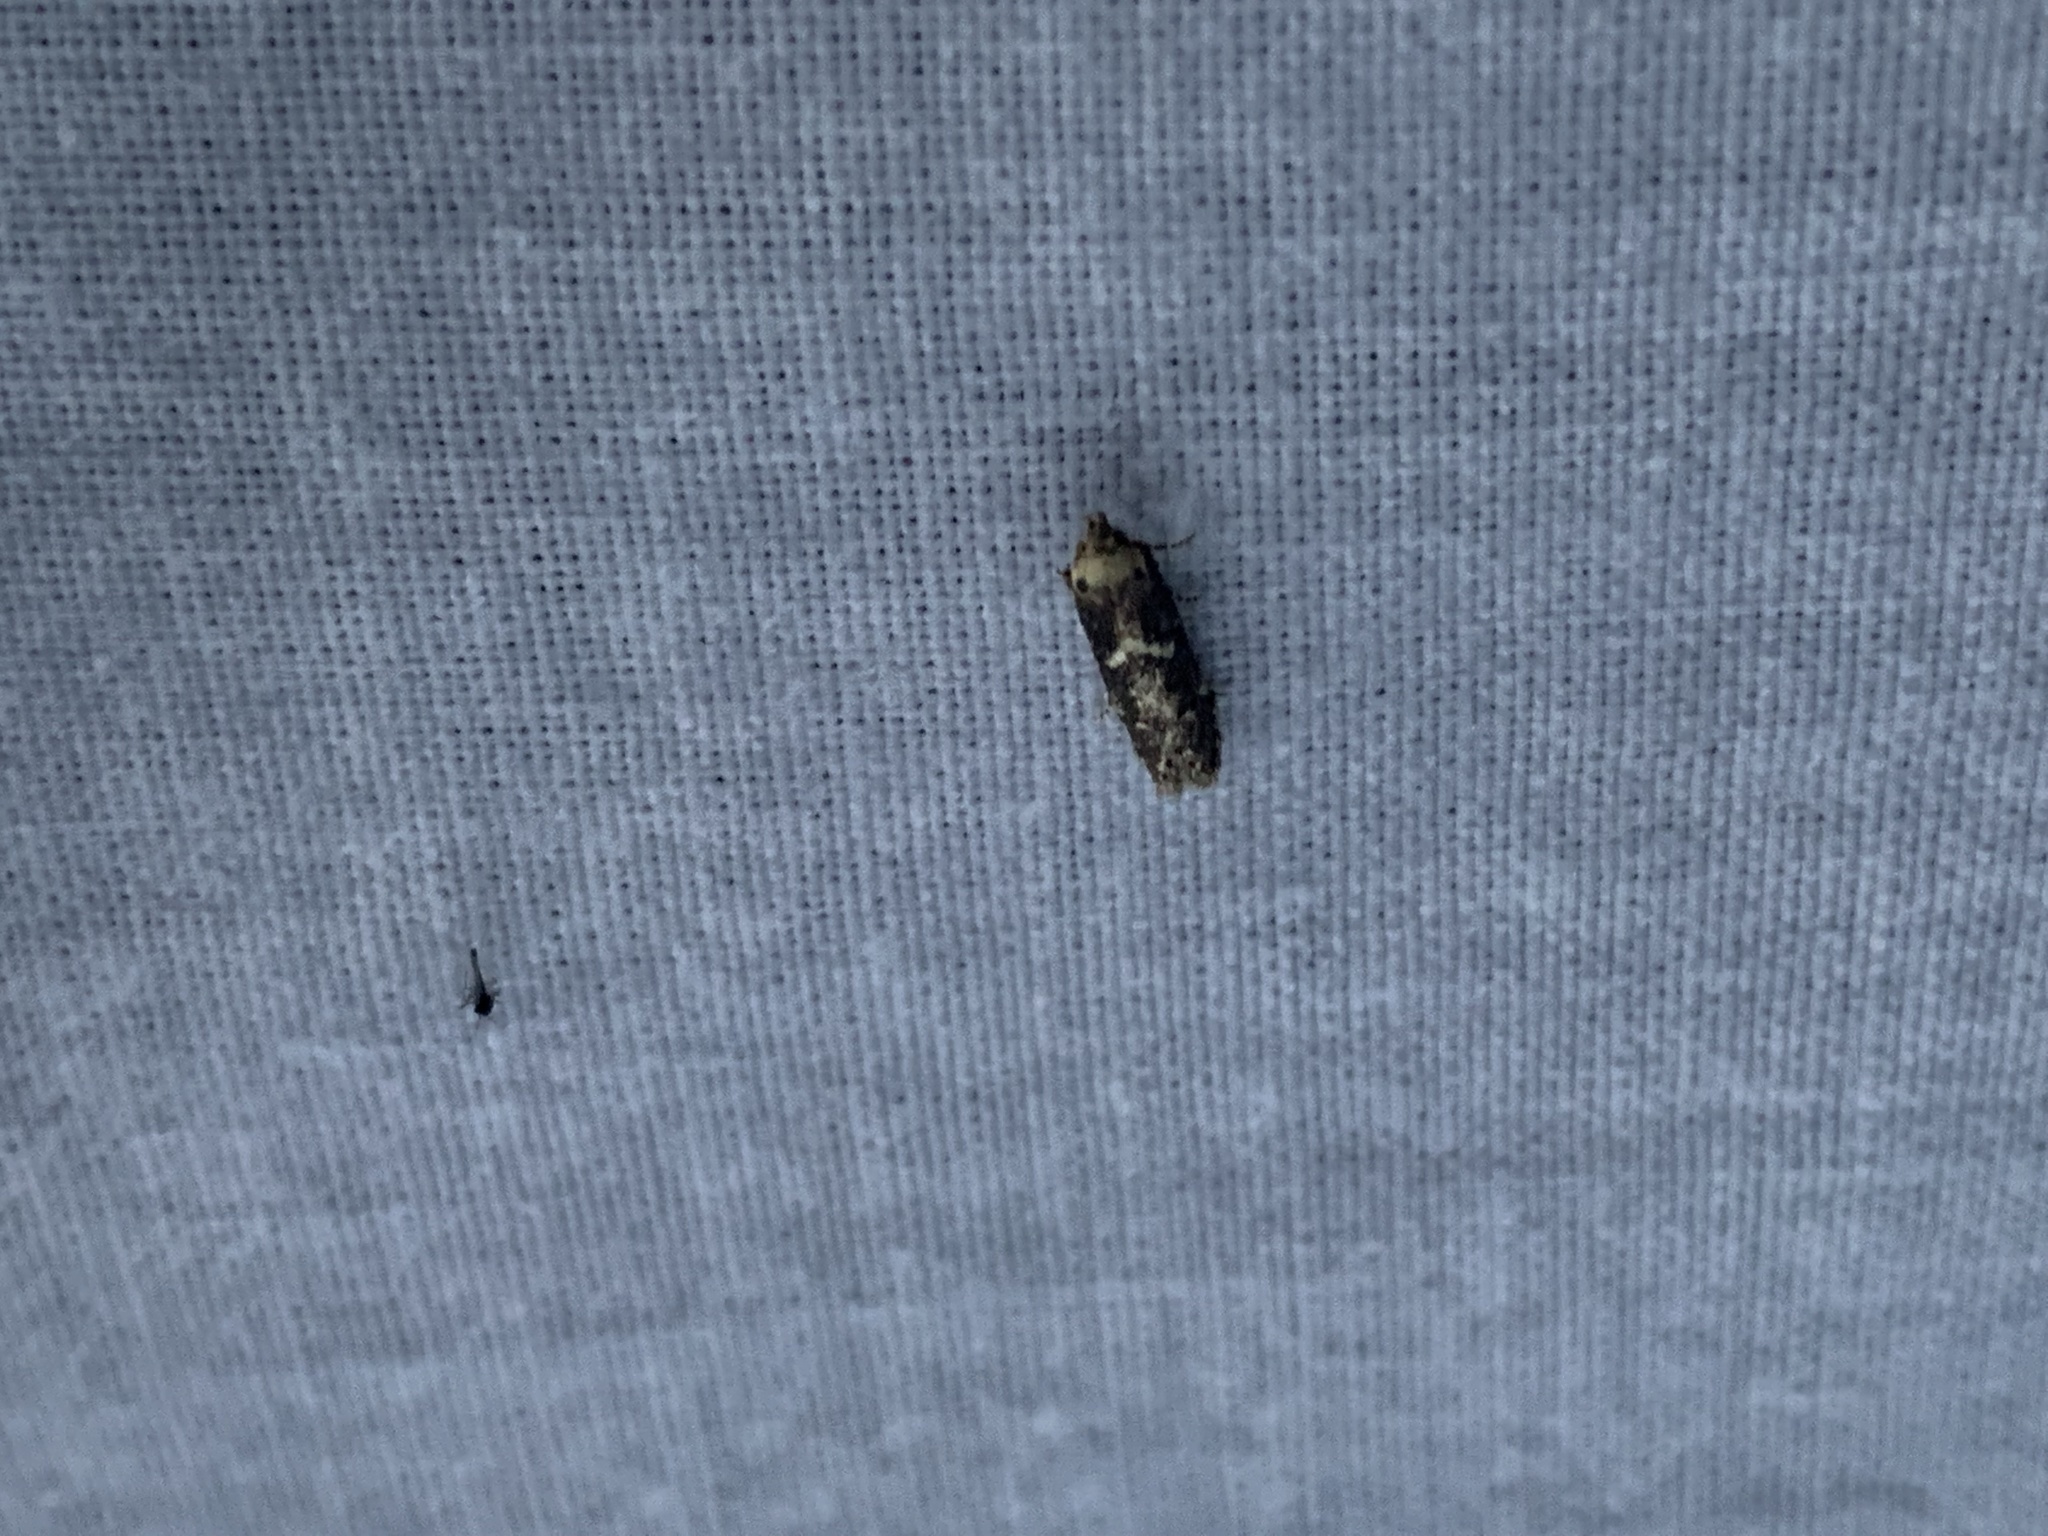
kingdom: Animalia
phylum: Arthropoda
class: Insecta
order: Lepidoptera
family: Blastobasidae
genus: Blastobasis
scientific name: Blastobasis adustella
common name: Dingy dowd
